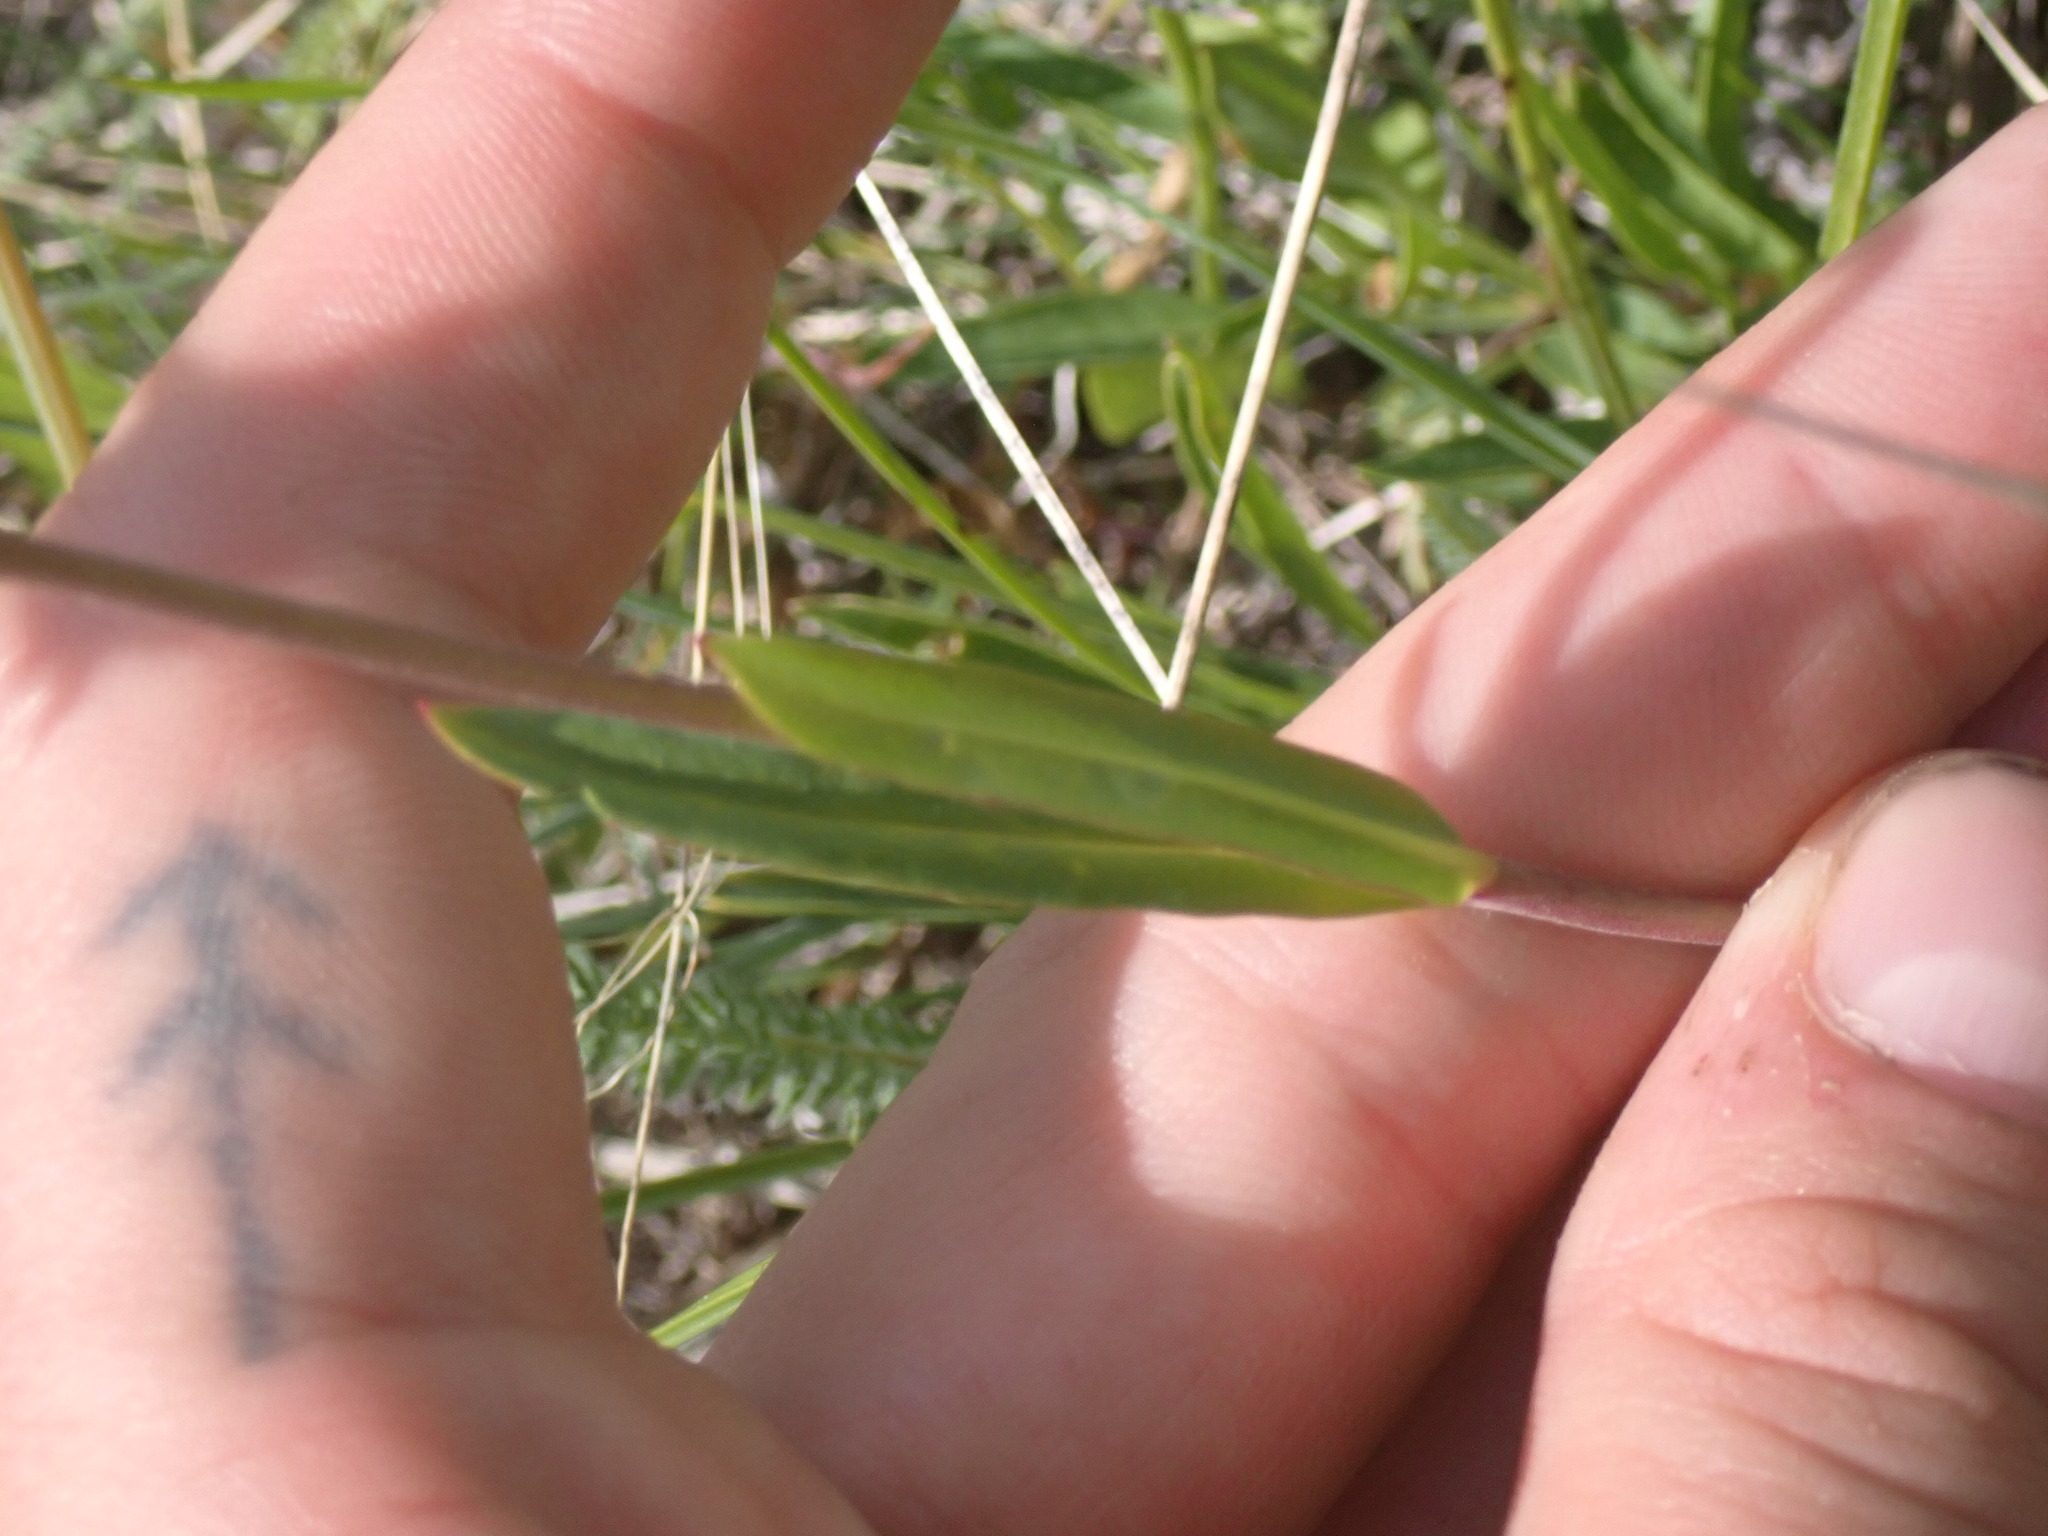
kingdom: Plantae
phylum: Tracheophyta
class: Magnoliopsida
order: Lamiales
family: Plantaginaceae
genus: Penstemon
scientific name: Penstemon procerus
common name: Small-flower penstemon
